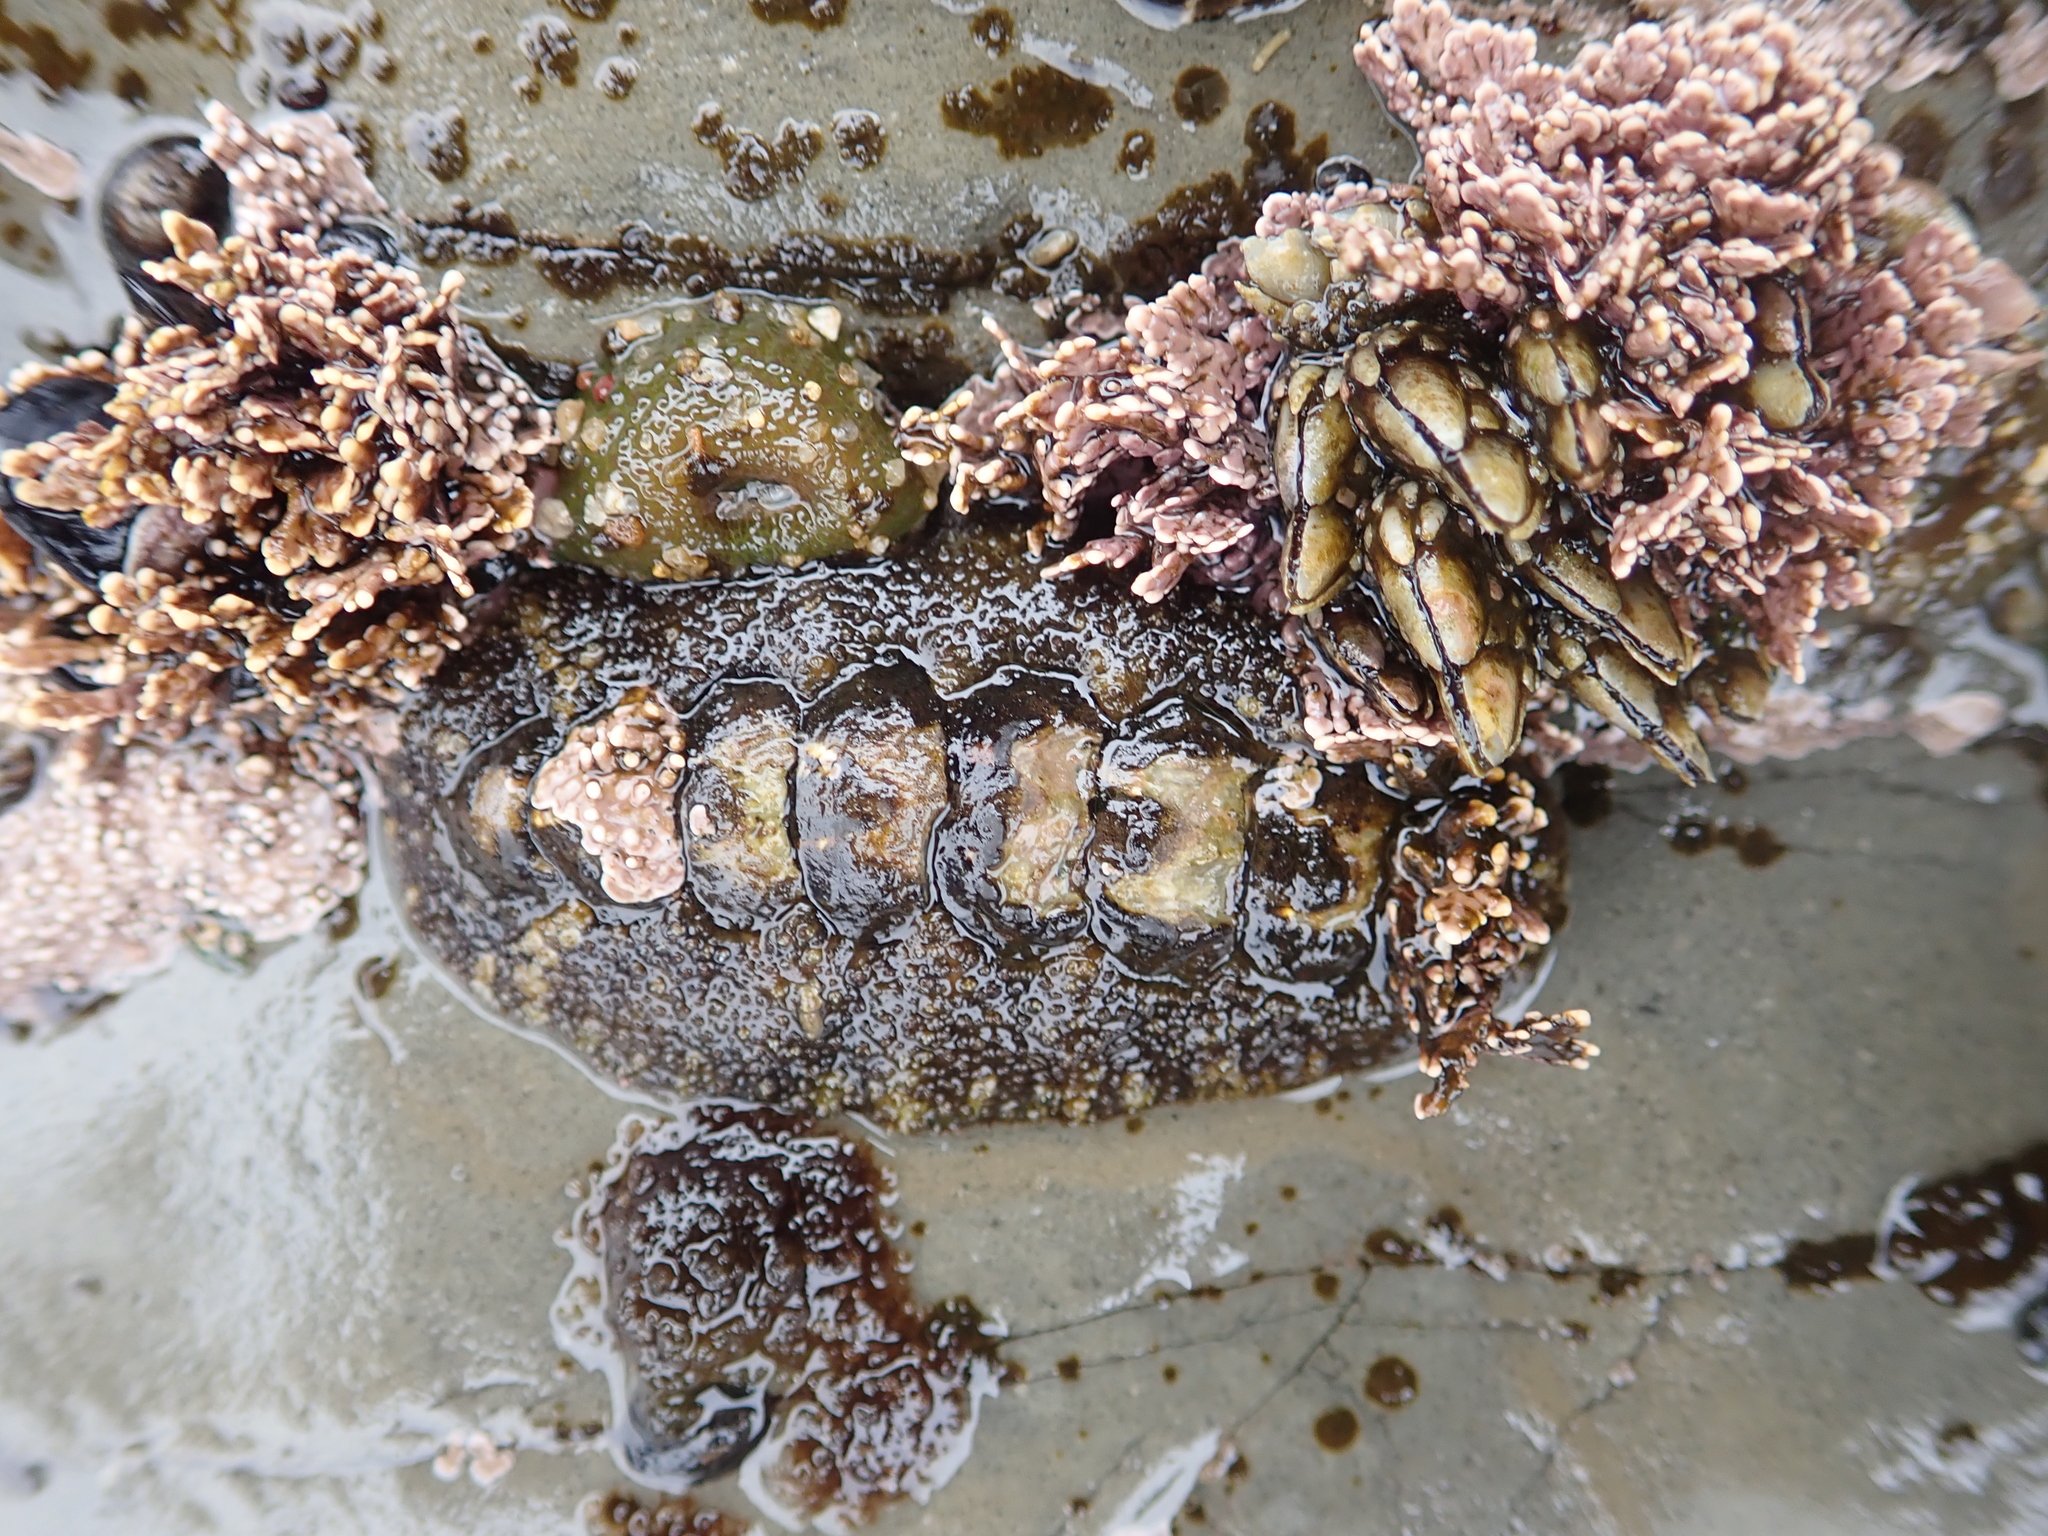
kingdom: Animalia
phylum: Mollusca
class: Polyplacophora
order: Chitonida
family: Tonicellidae
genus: Nuttallina
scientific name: Nuttallina californica
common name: California nuttall chiton
